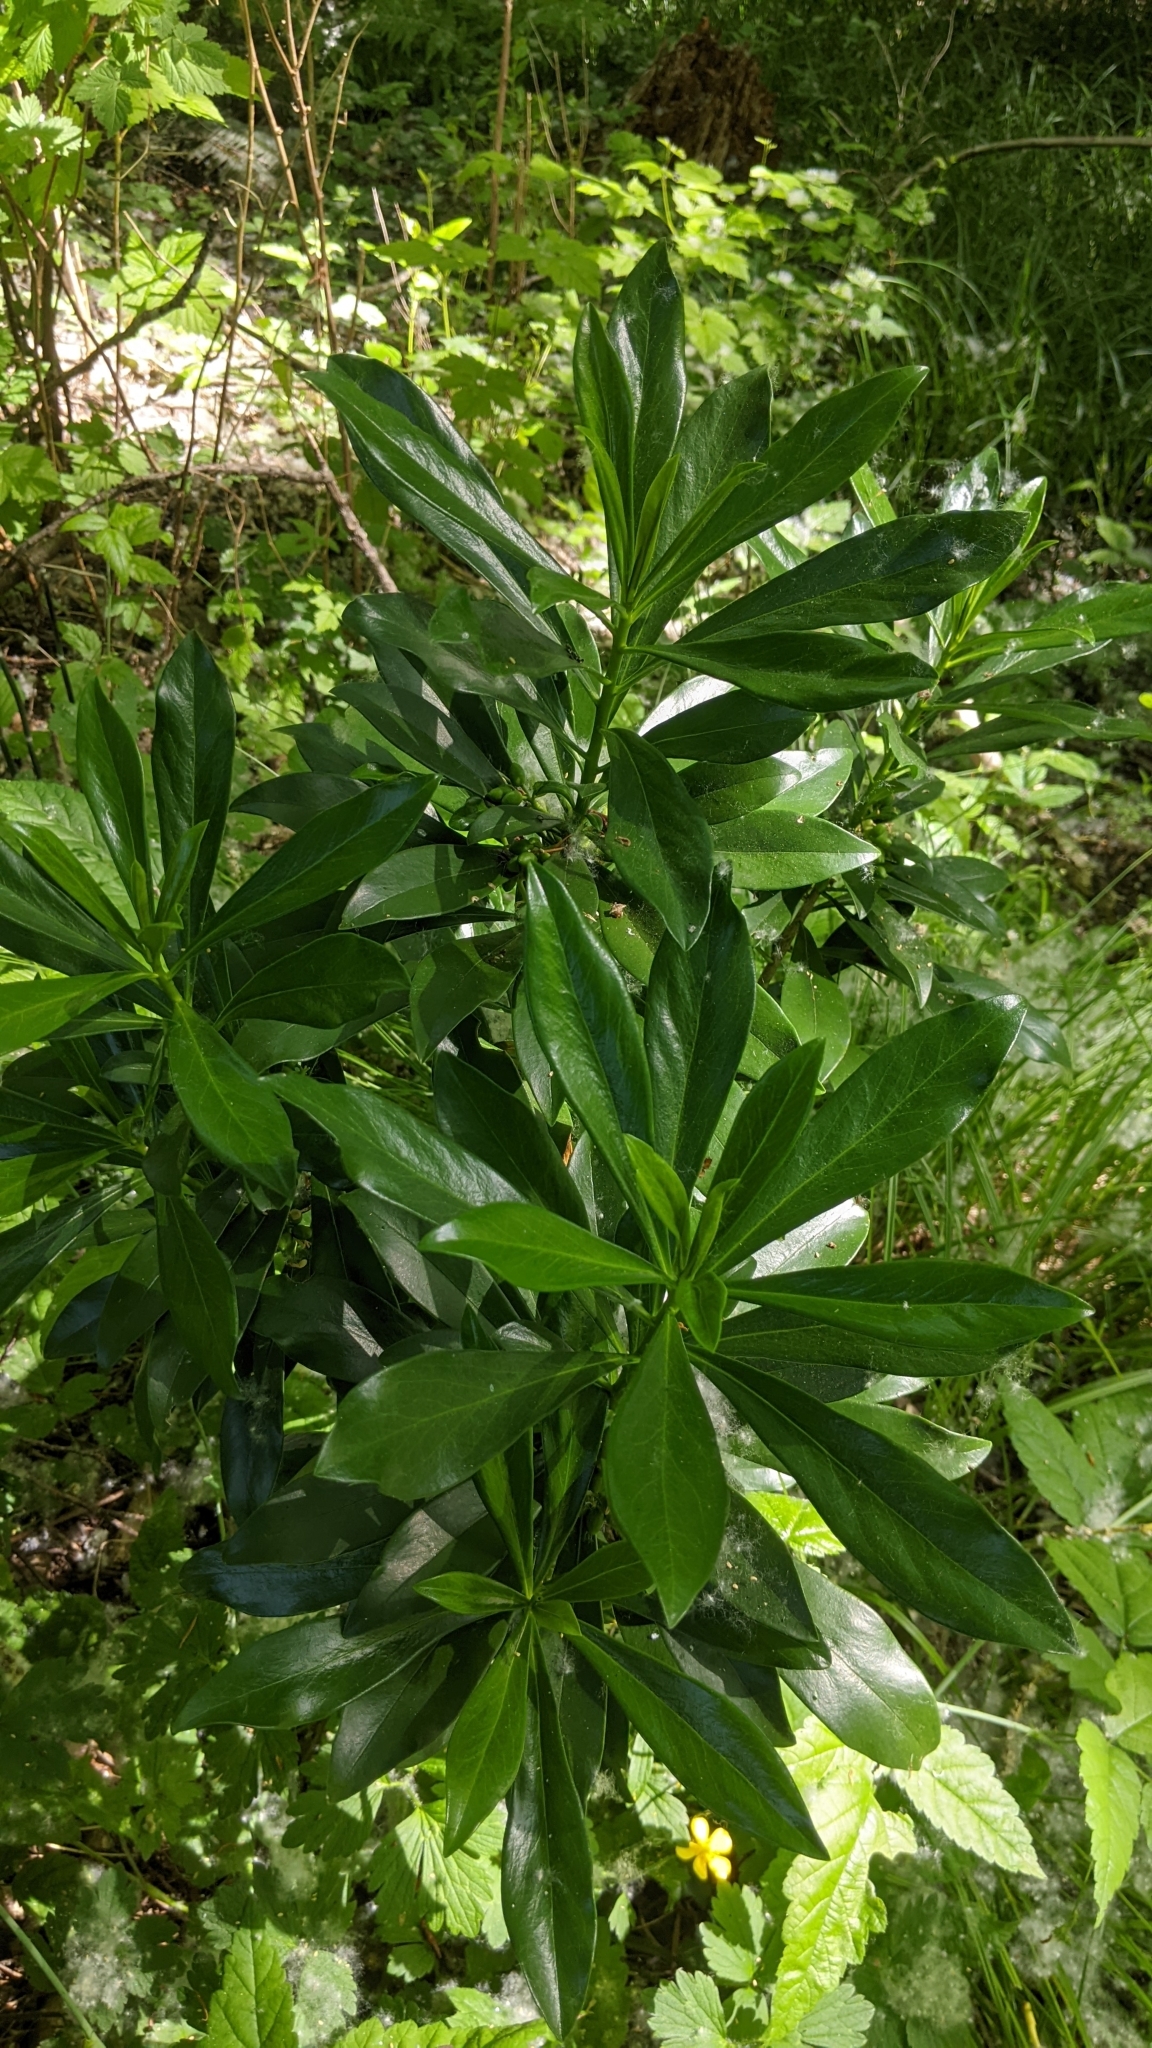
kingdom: Plantae
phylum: Tracheophyta
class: Magnoliopsida
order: Malvales
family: Thymelaeaceae
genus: Daphne
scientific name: Daphne laureola
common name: Spurge-laurel
